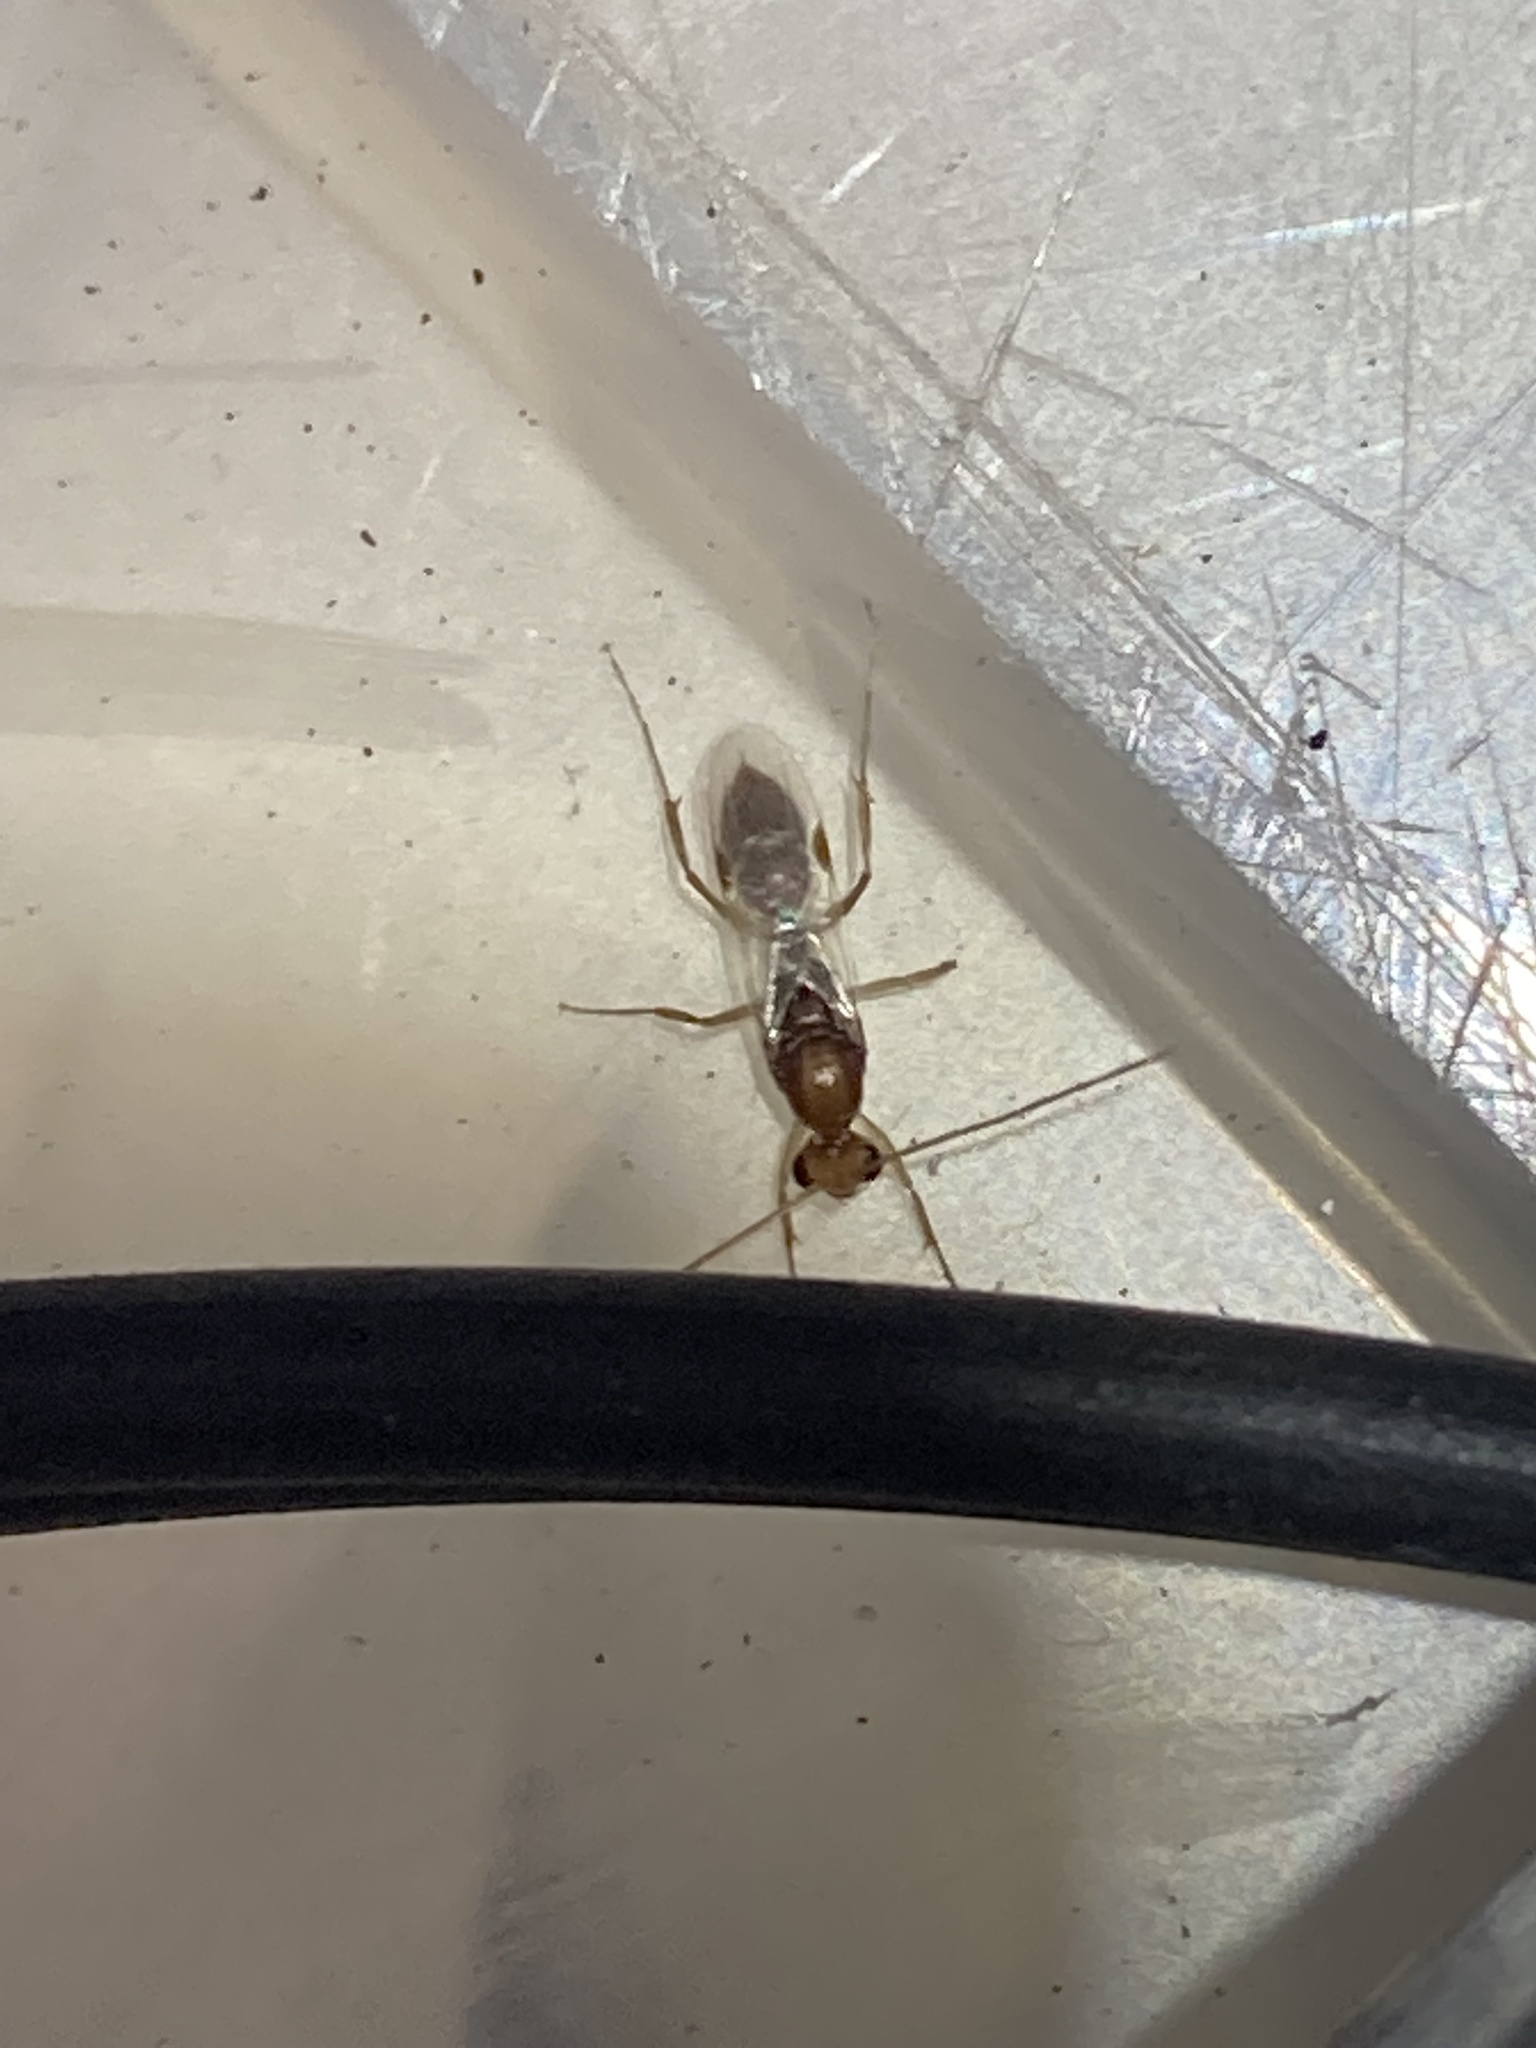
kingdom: Animalia
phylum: Arthropoda
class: Insecta
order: Hymenoptera
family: Formicidae
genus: Odontomachus
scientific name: Odontomachus ruginodis
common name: Trapjaw ant
